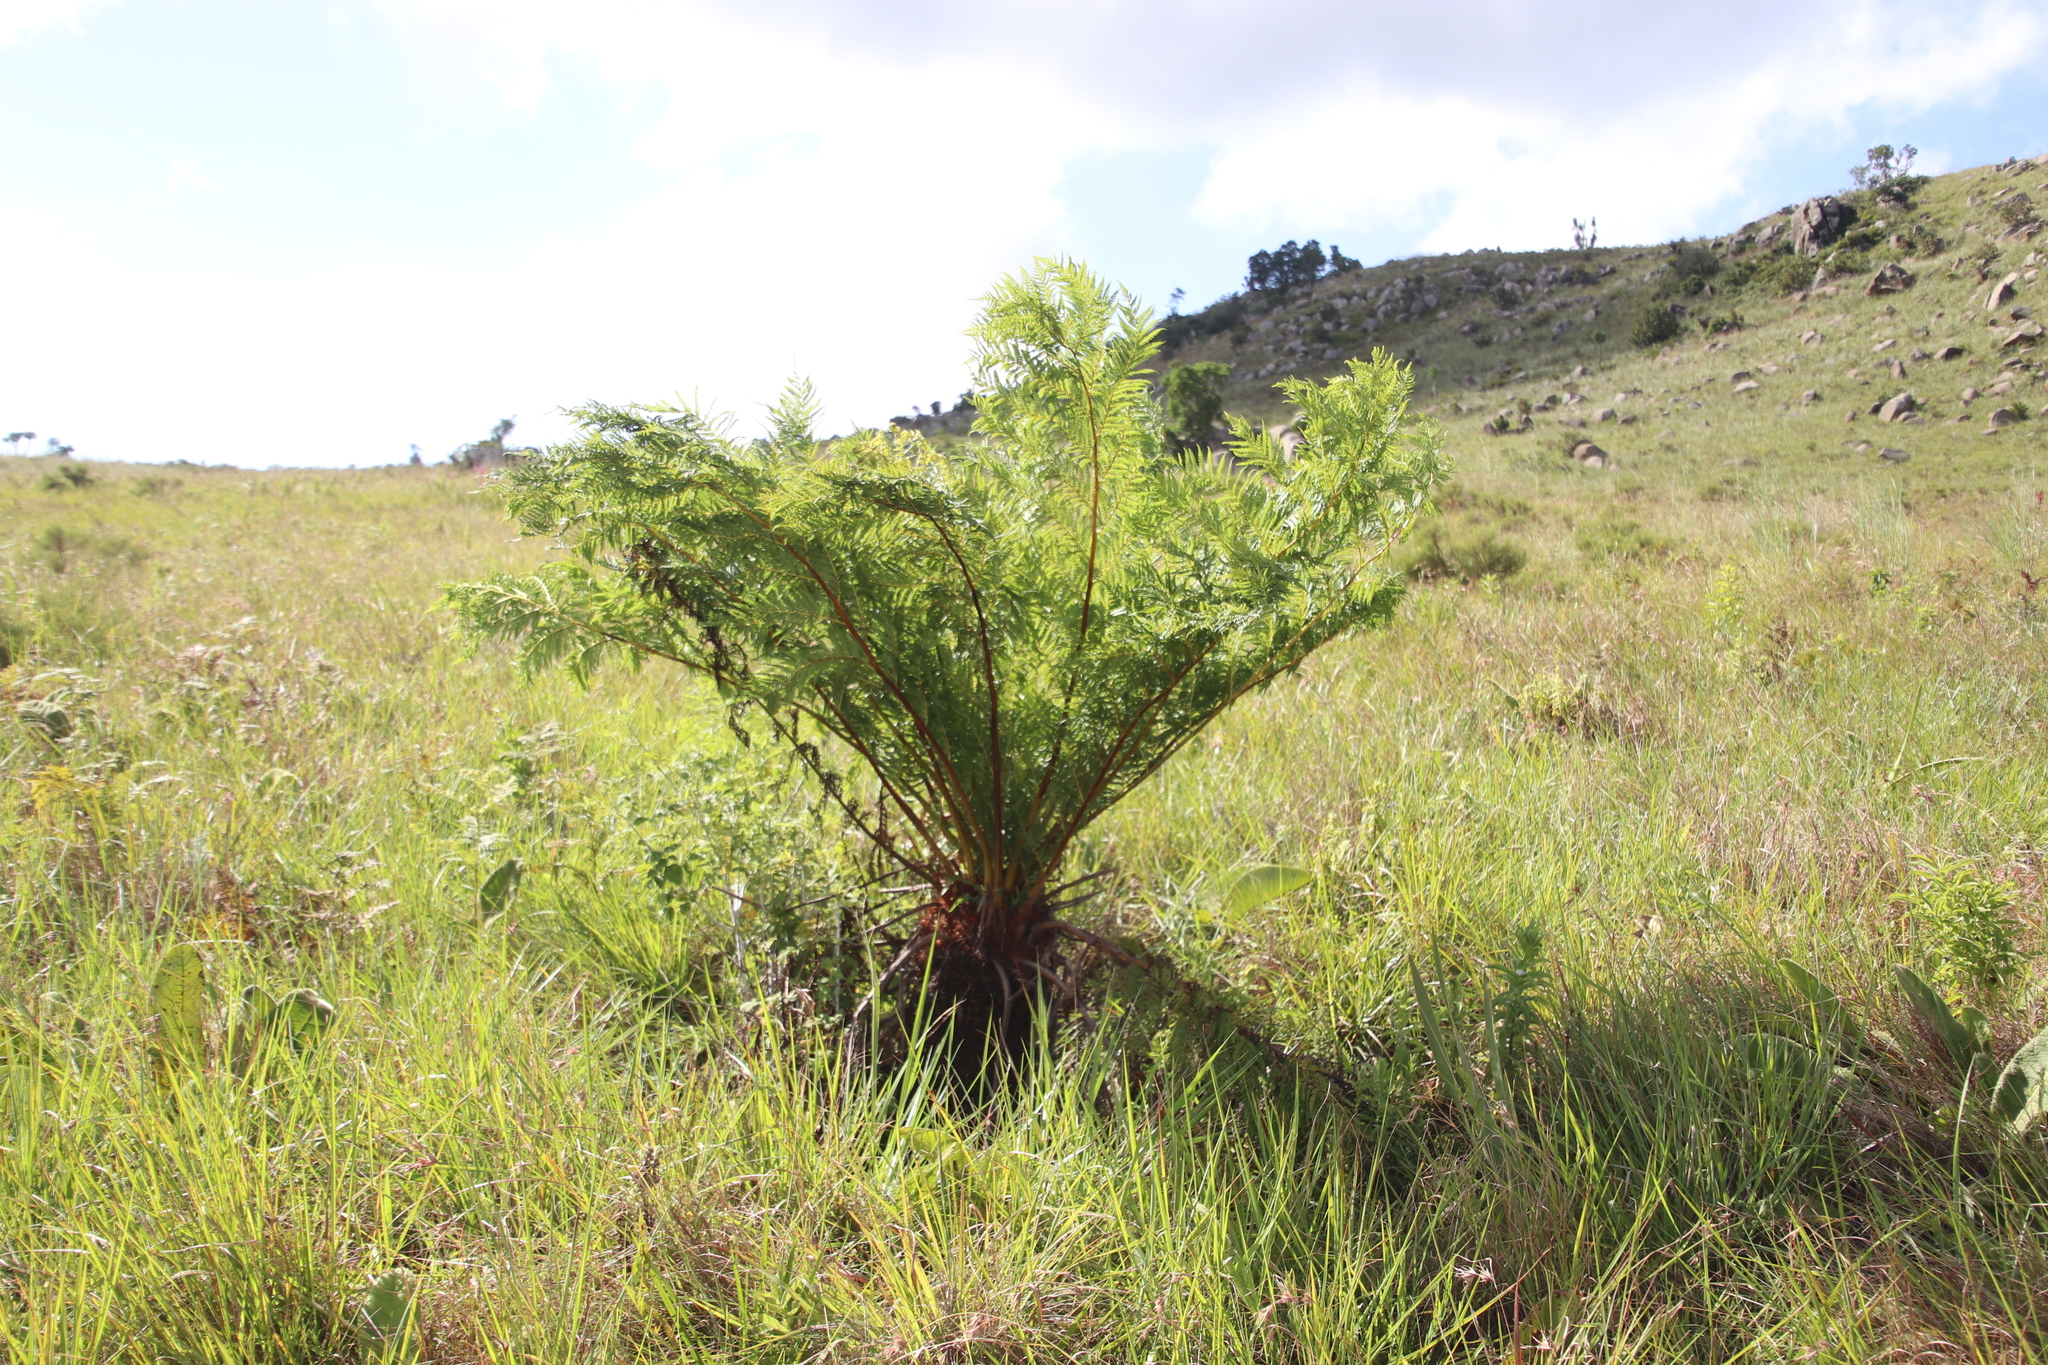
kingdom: Plantae
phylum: Tracheophyta
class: Polypodiopsida
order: Cyatheales
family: Cyatheaceae
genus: Alsophila
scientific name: Alsophila dregei
